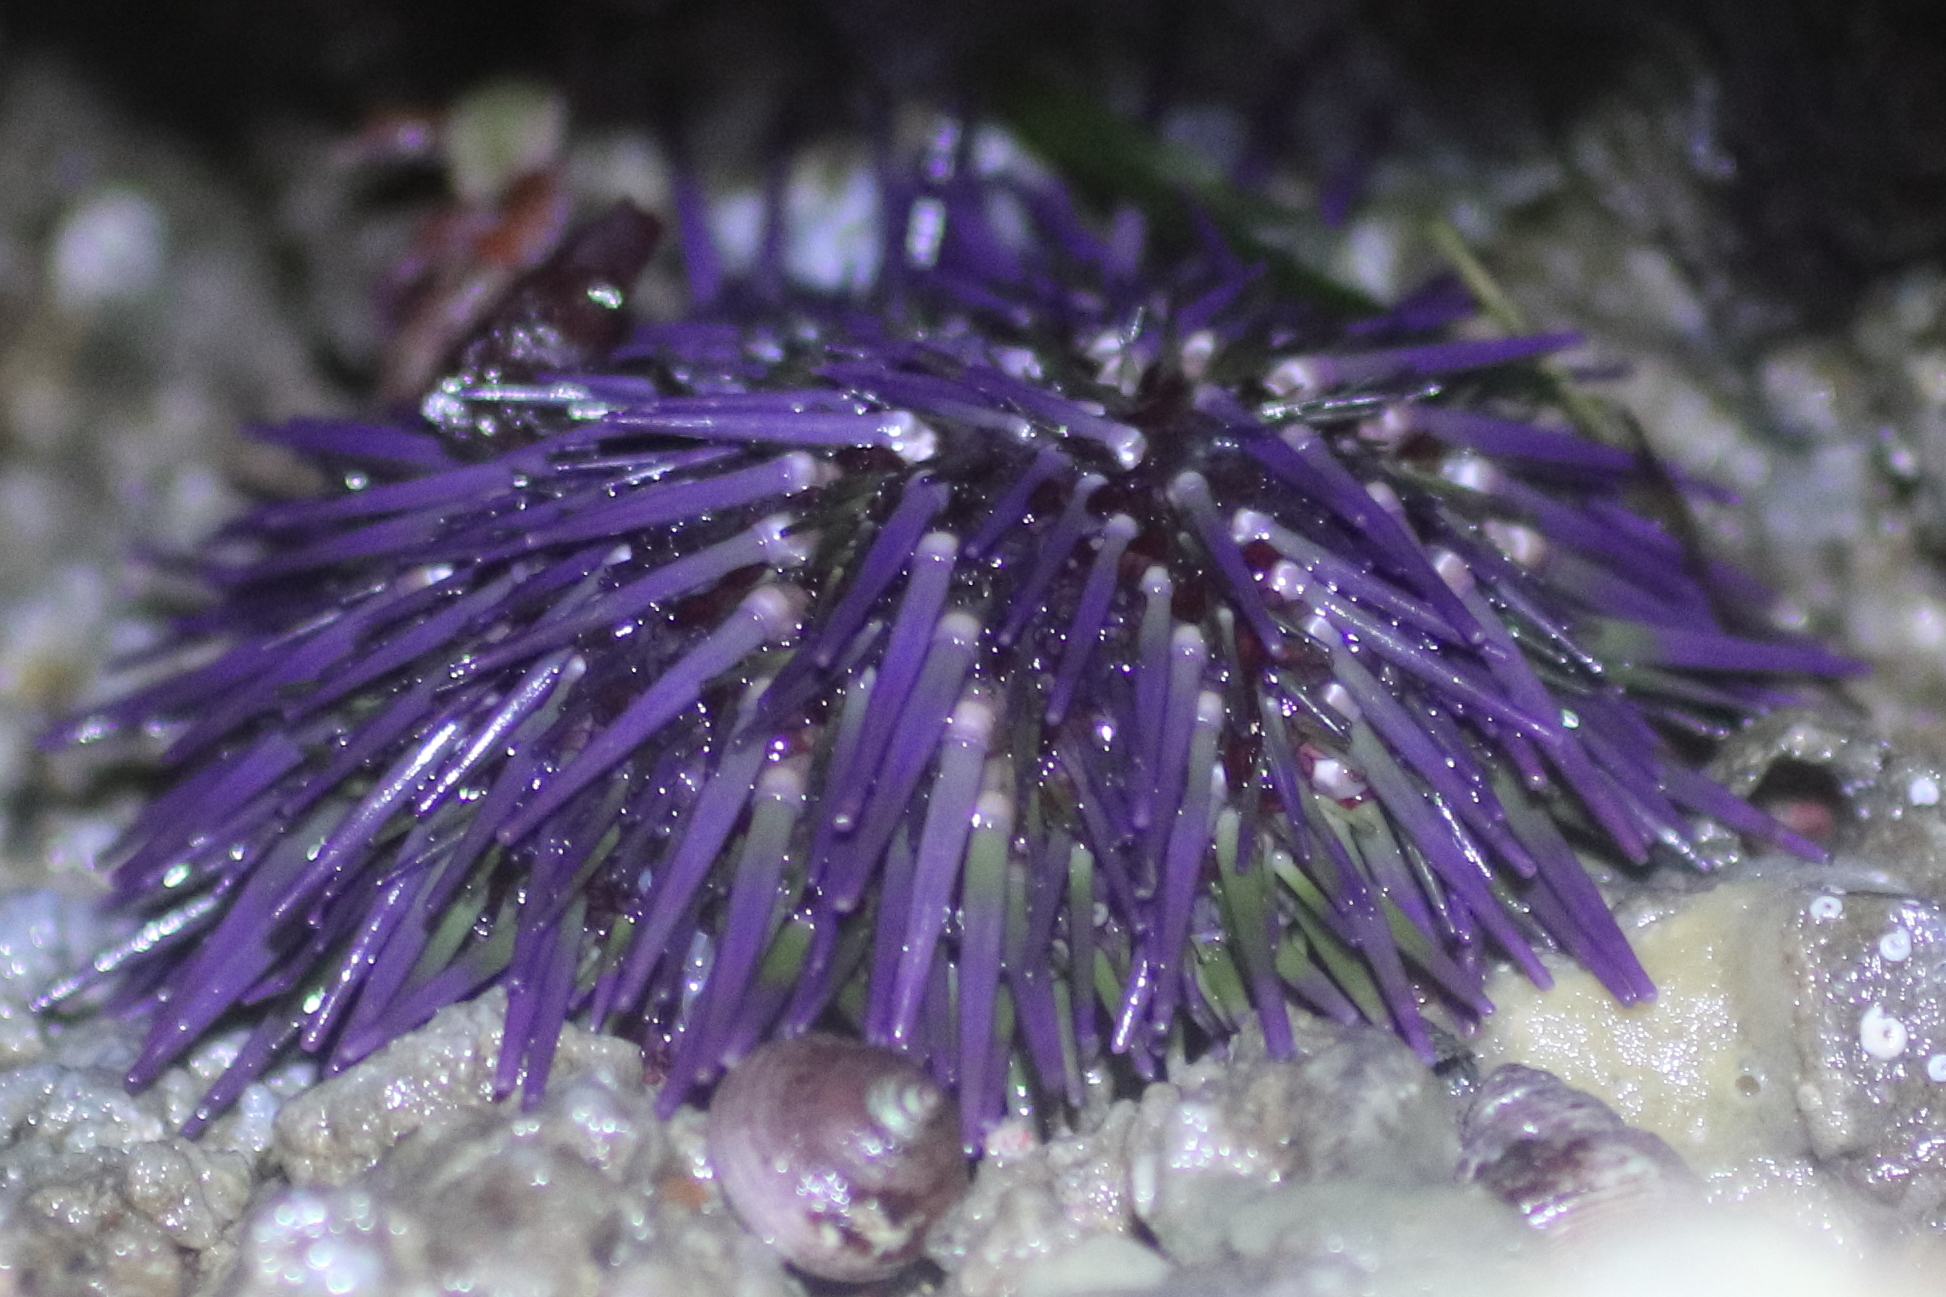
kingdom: Animalia
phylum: Echinodermata
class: Echinoidea
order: Camarodonta
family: Strongylocentrotidae
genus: Strongylocentrotus
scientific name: Strongylocentrotus purpuratus
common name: Purple sea urchin
